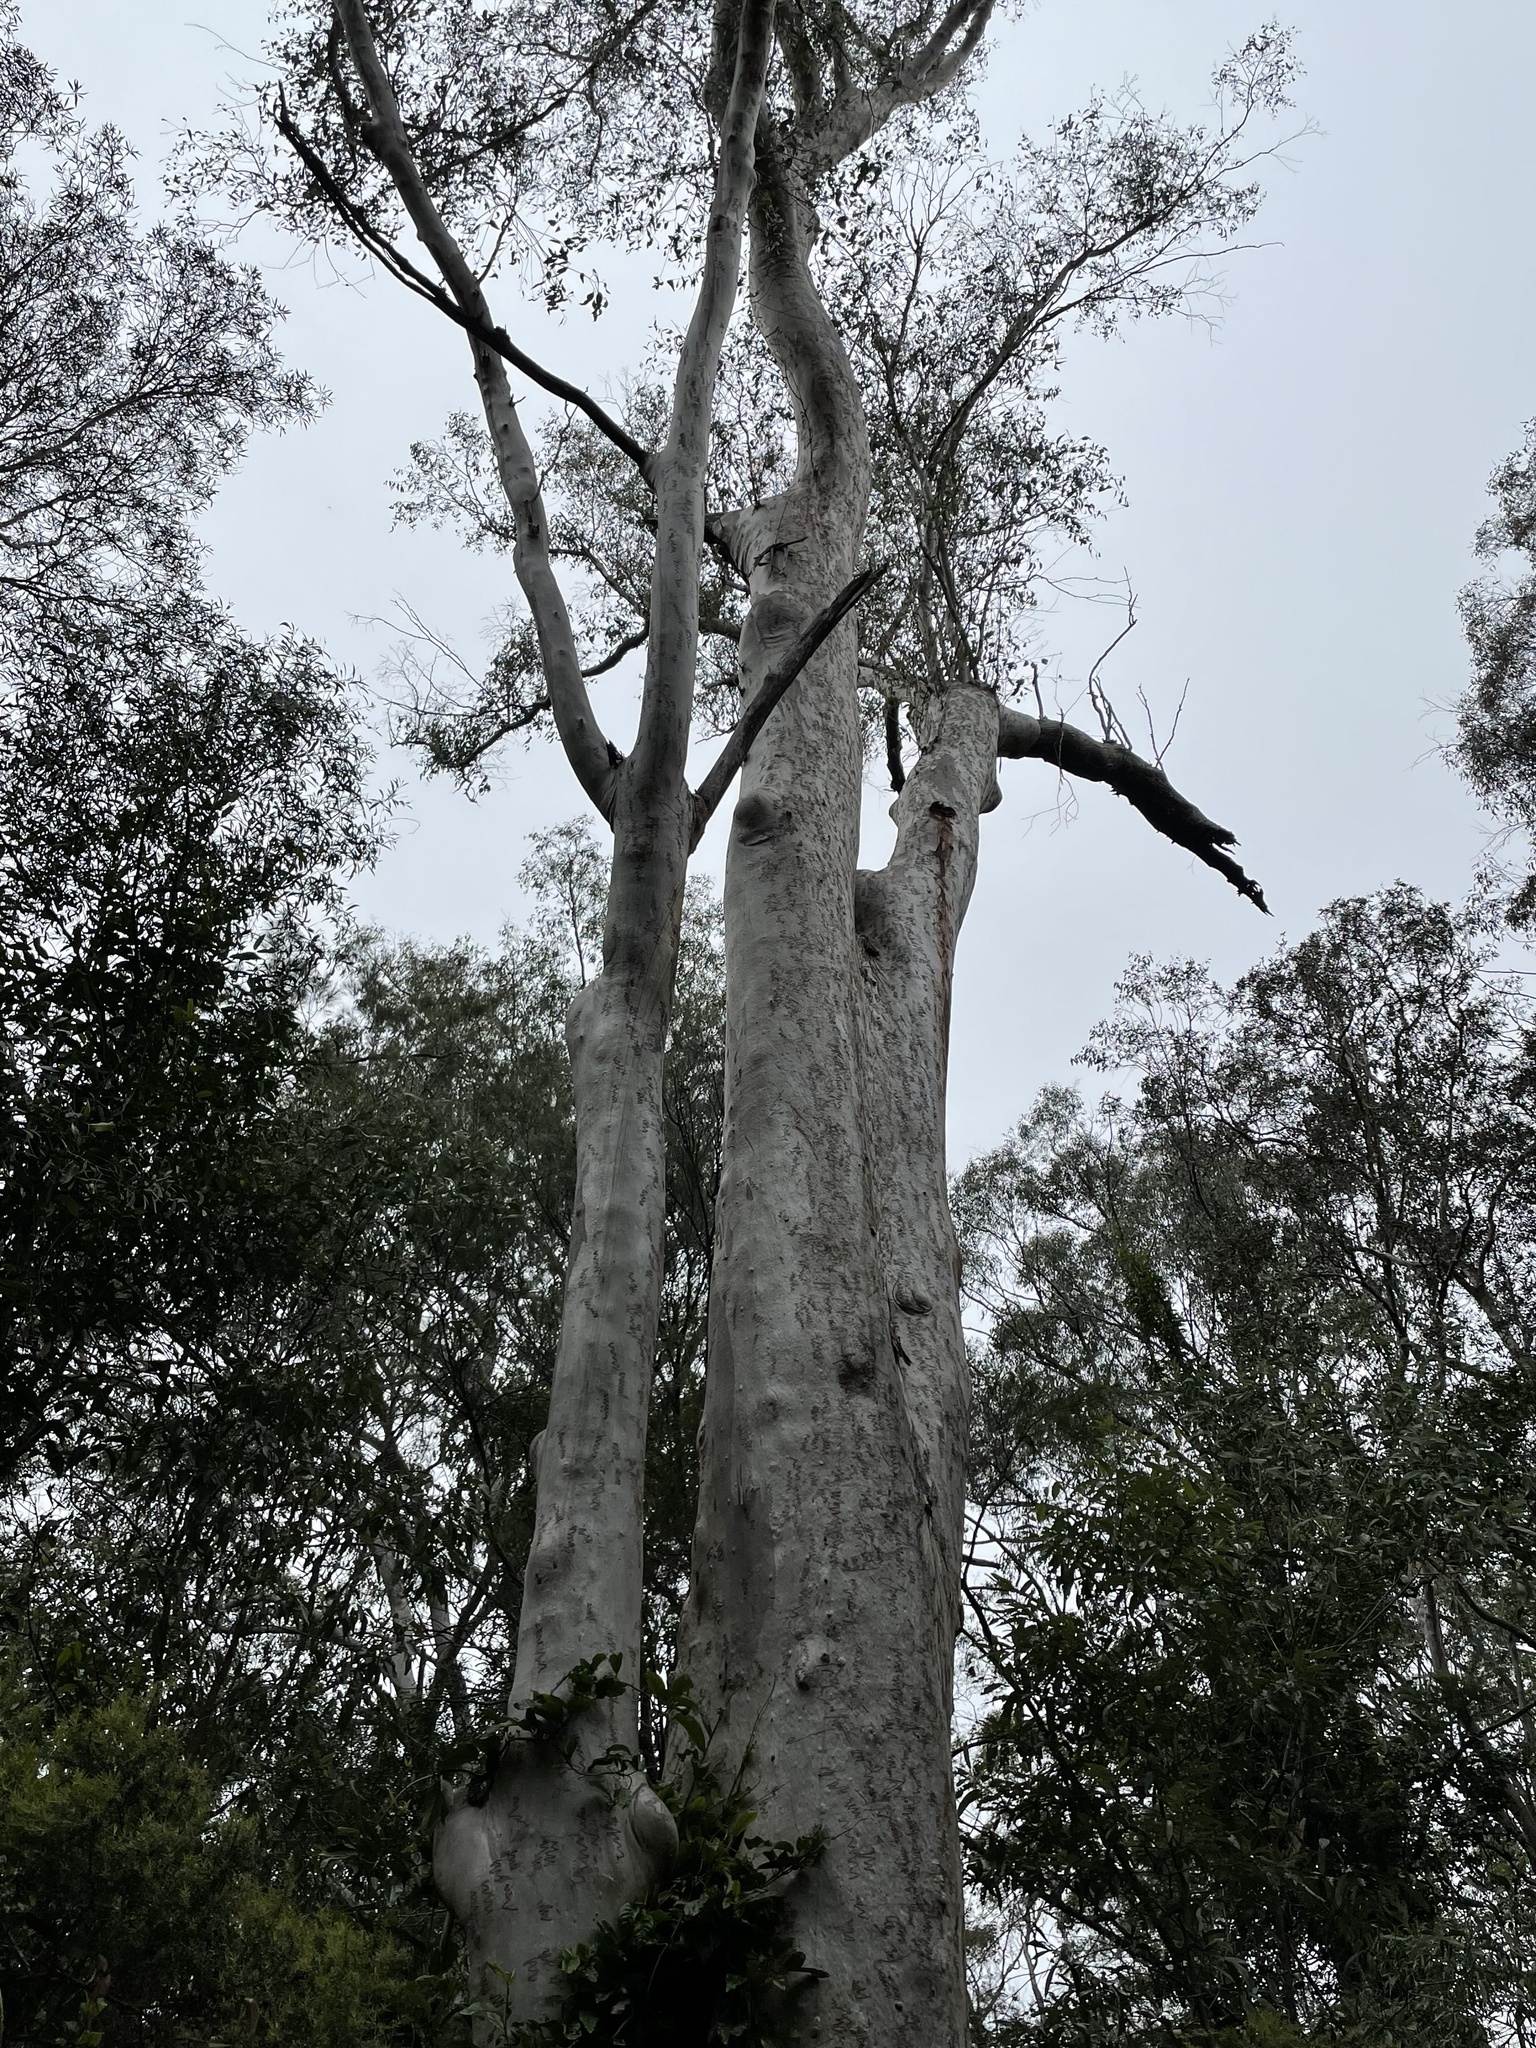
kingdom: Plantae
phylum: Tracheophyta
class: Magnoliopsida
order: Myrtales
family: Myrtaceae
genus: Eucalyptus
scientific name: Eucalyptus racemosa
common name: Scribbly gum
